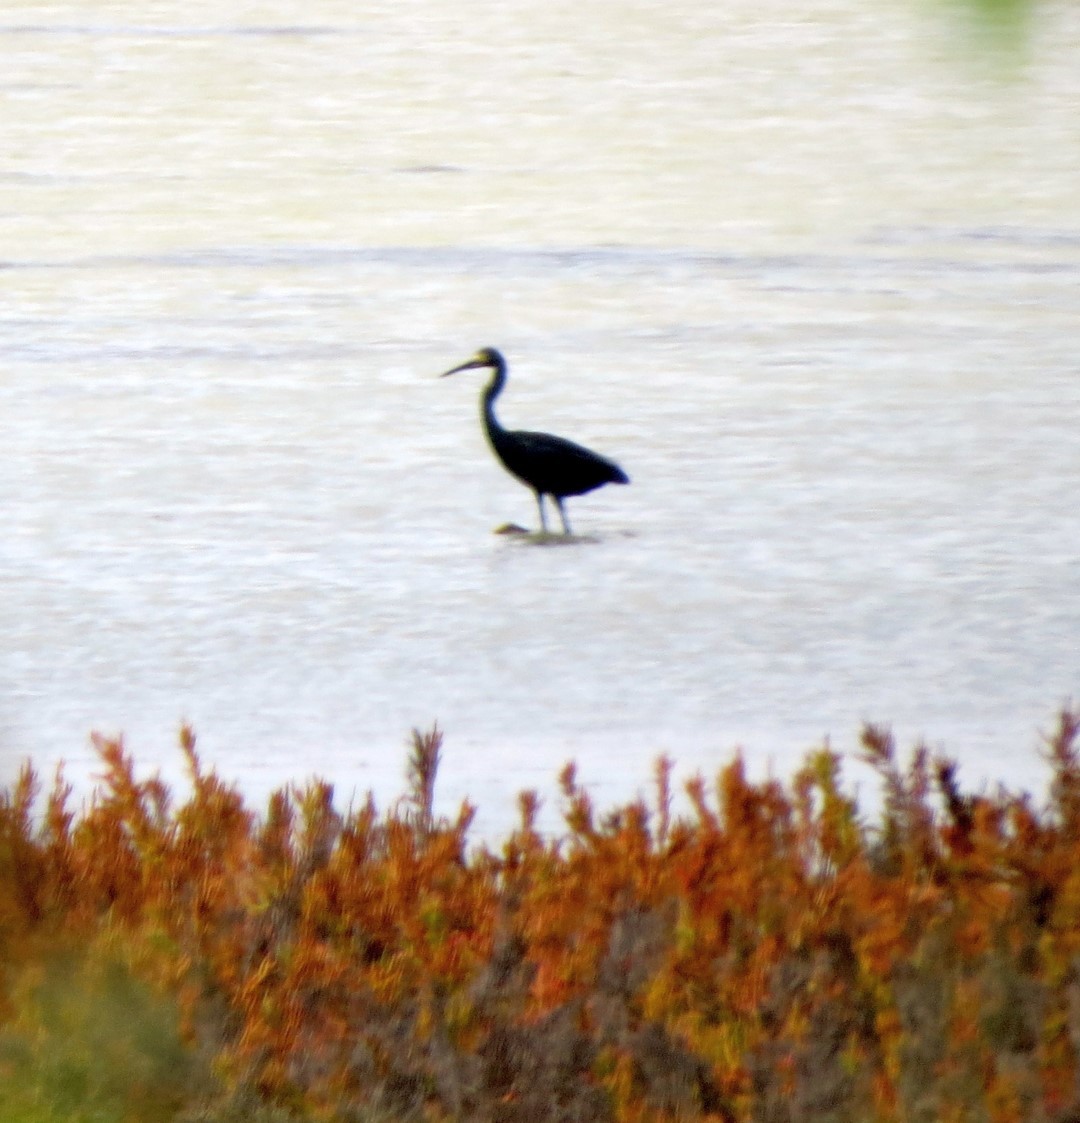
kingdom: Animalia
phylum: Chordata
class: Aves
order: Pelecaniformes
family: Ardeidae
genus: Egretta
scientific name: Egretta dimorpha
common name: Dimorphic egret
